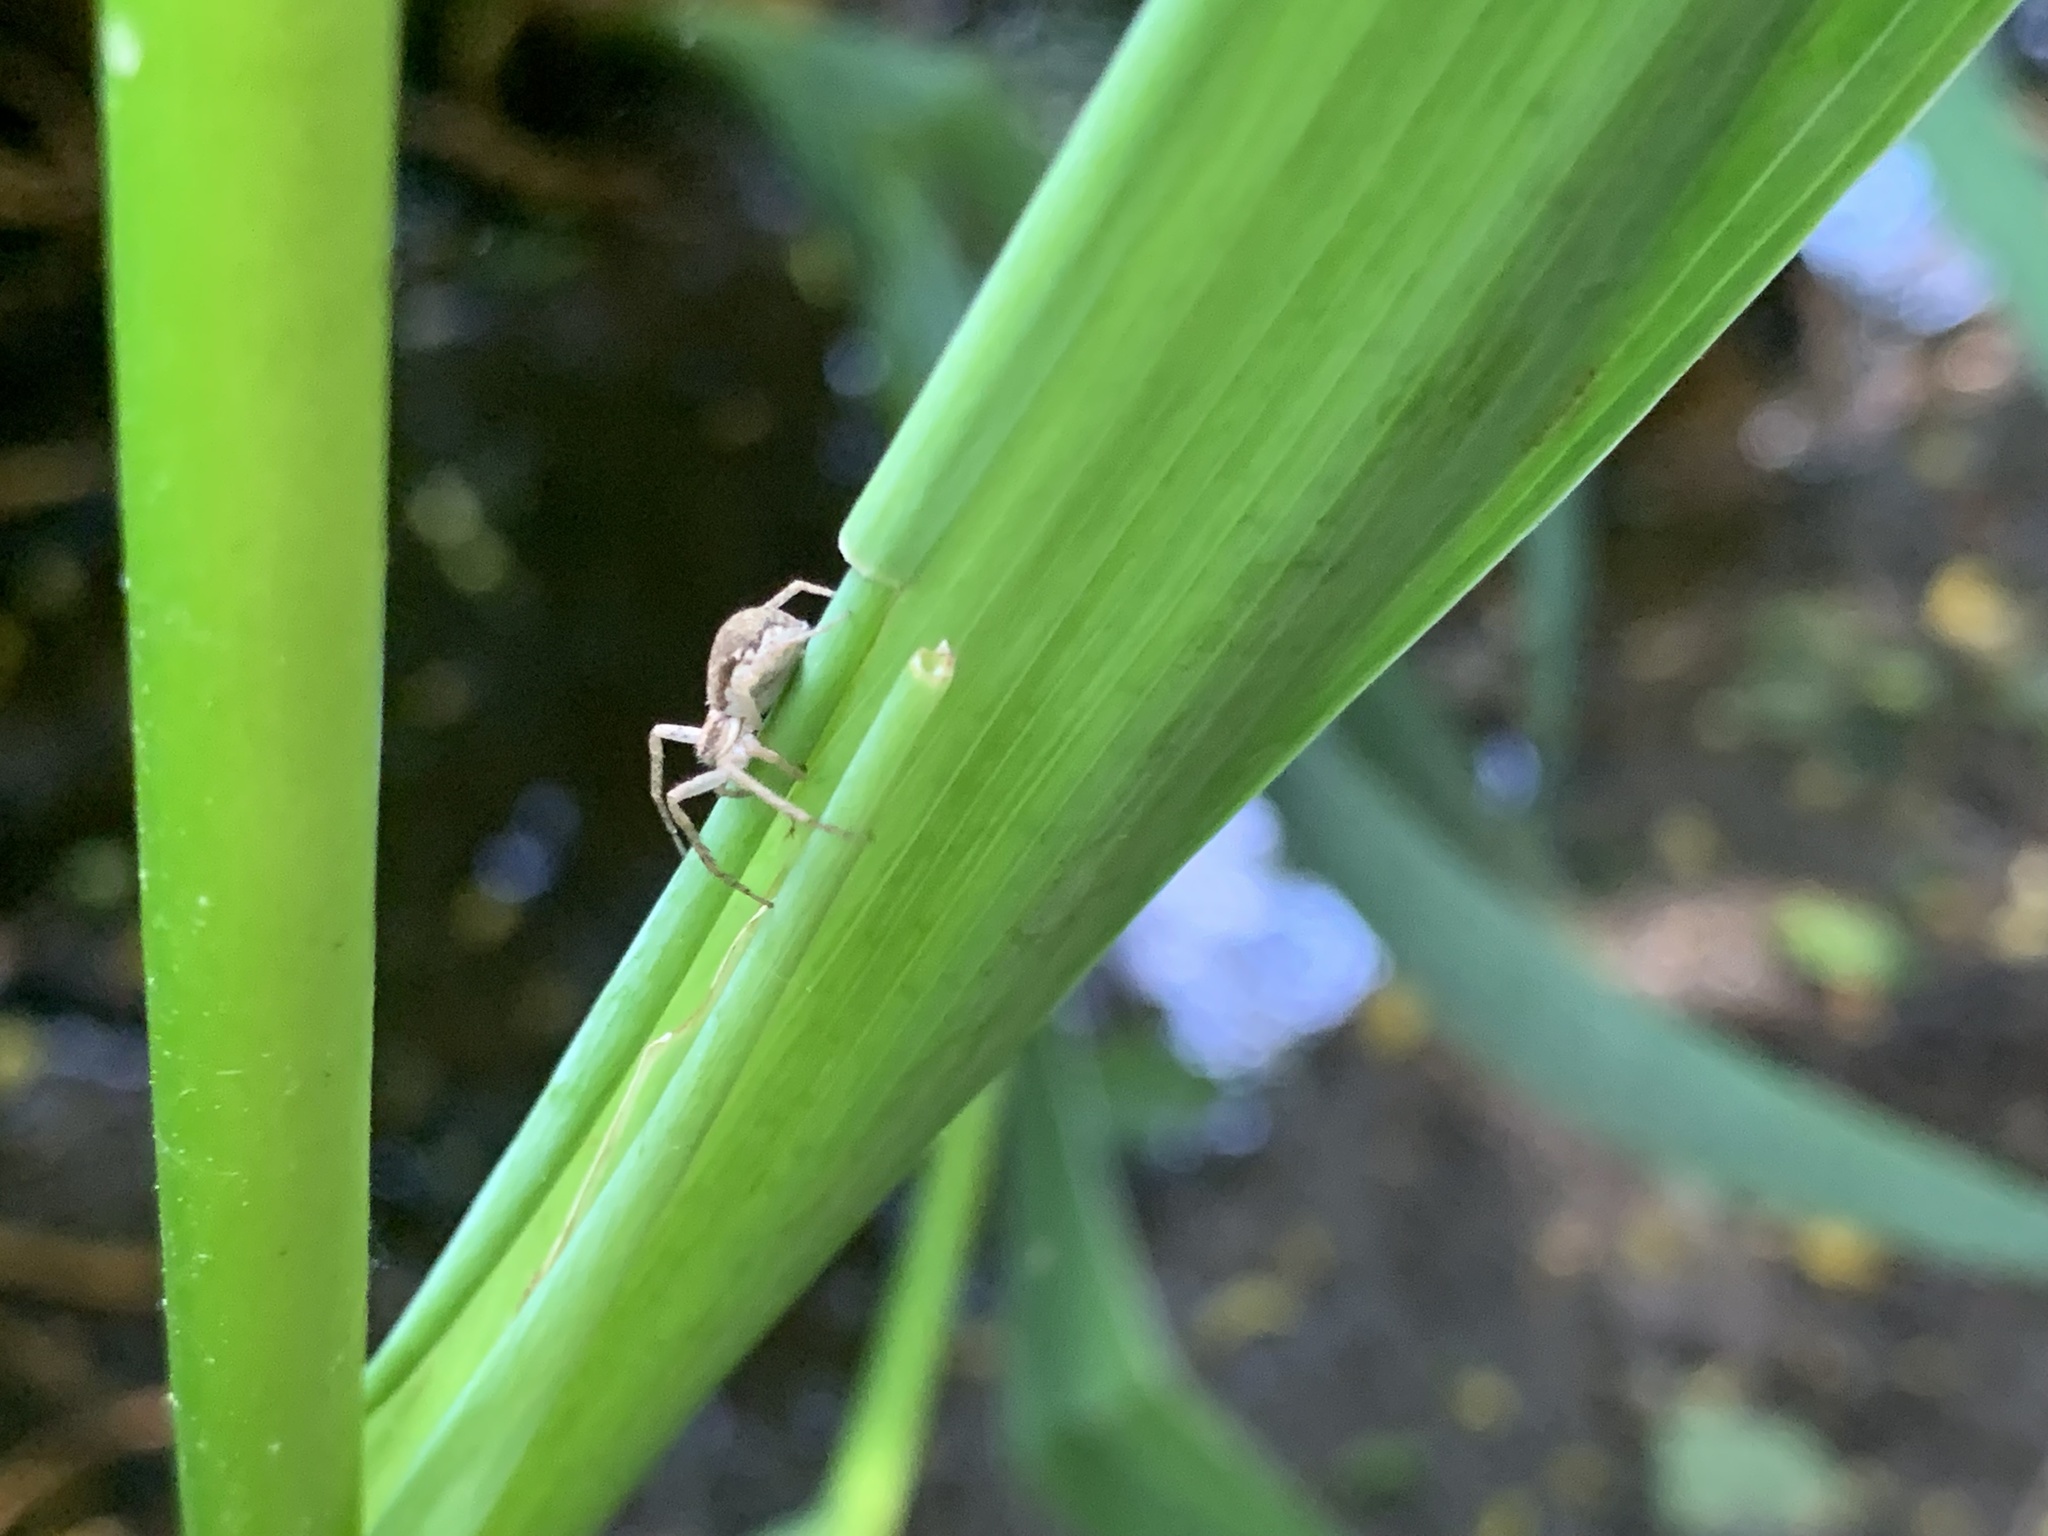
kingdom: Animalia
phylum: Arthropoda
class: Arachnida
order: Araneae
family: Philodromidae
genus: Philodromus
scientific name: Philodromus dispar
